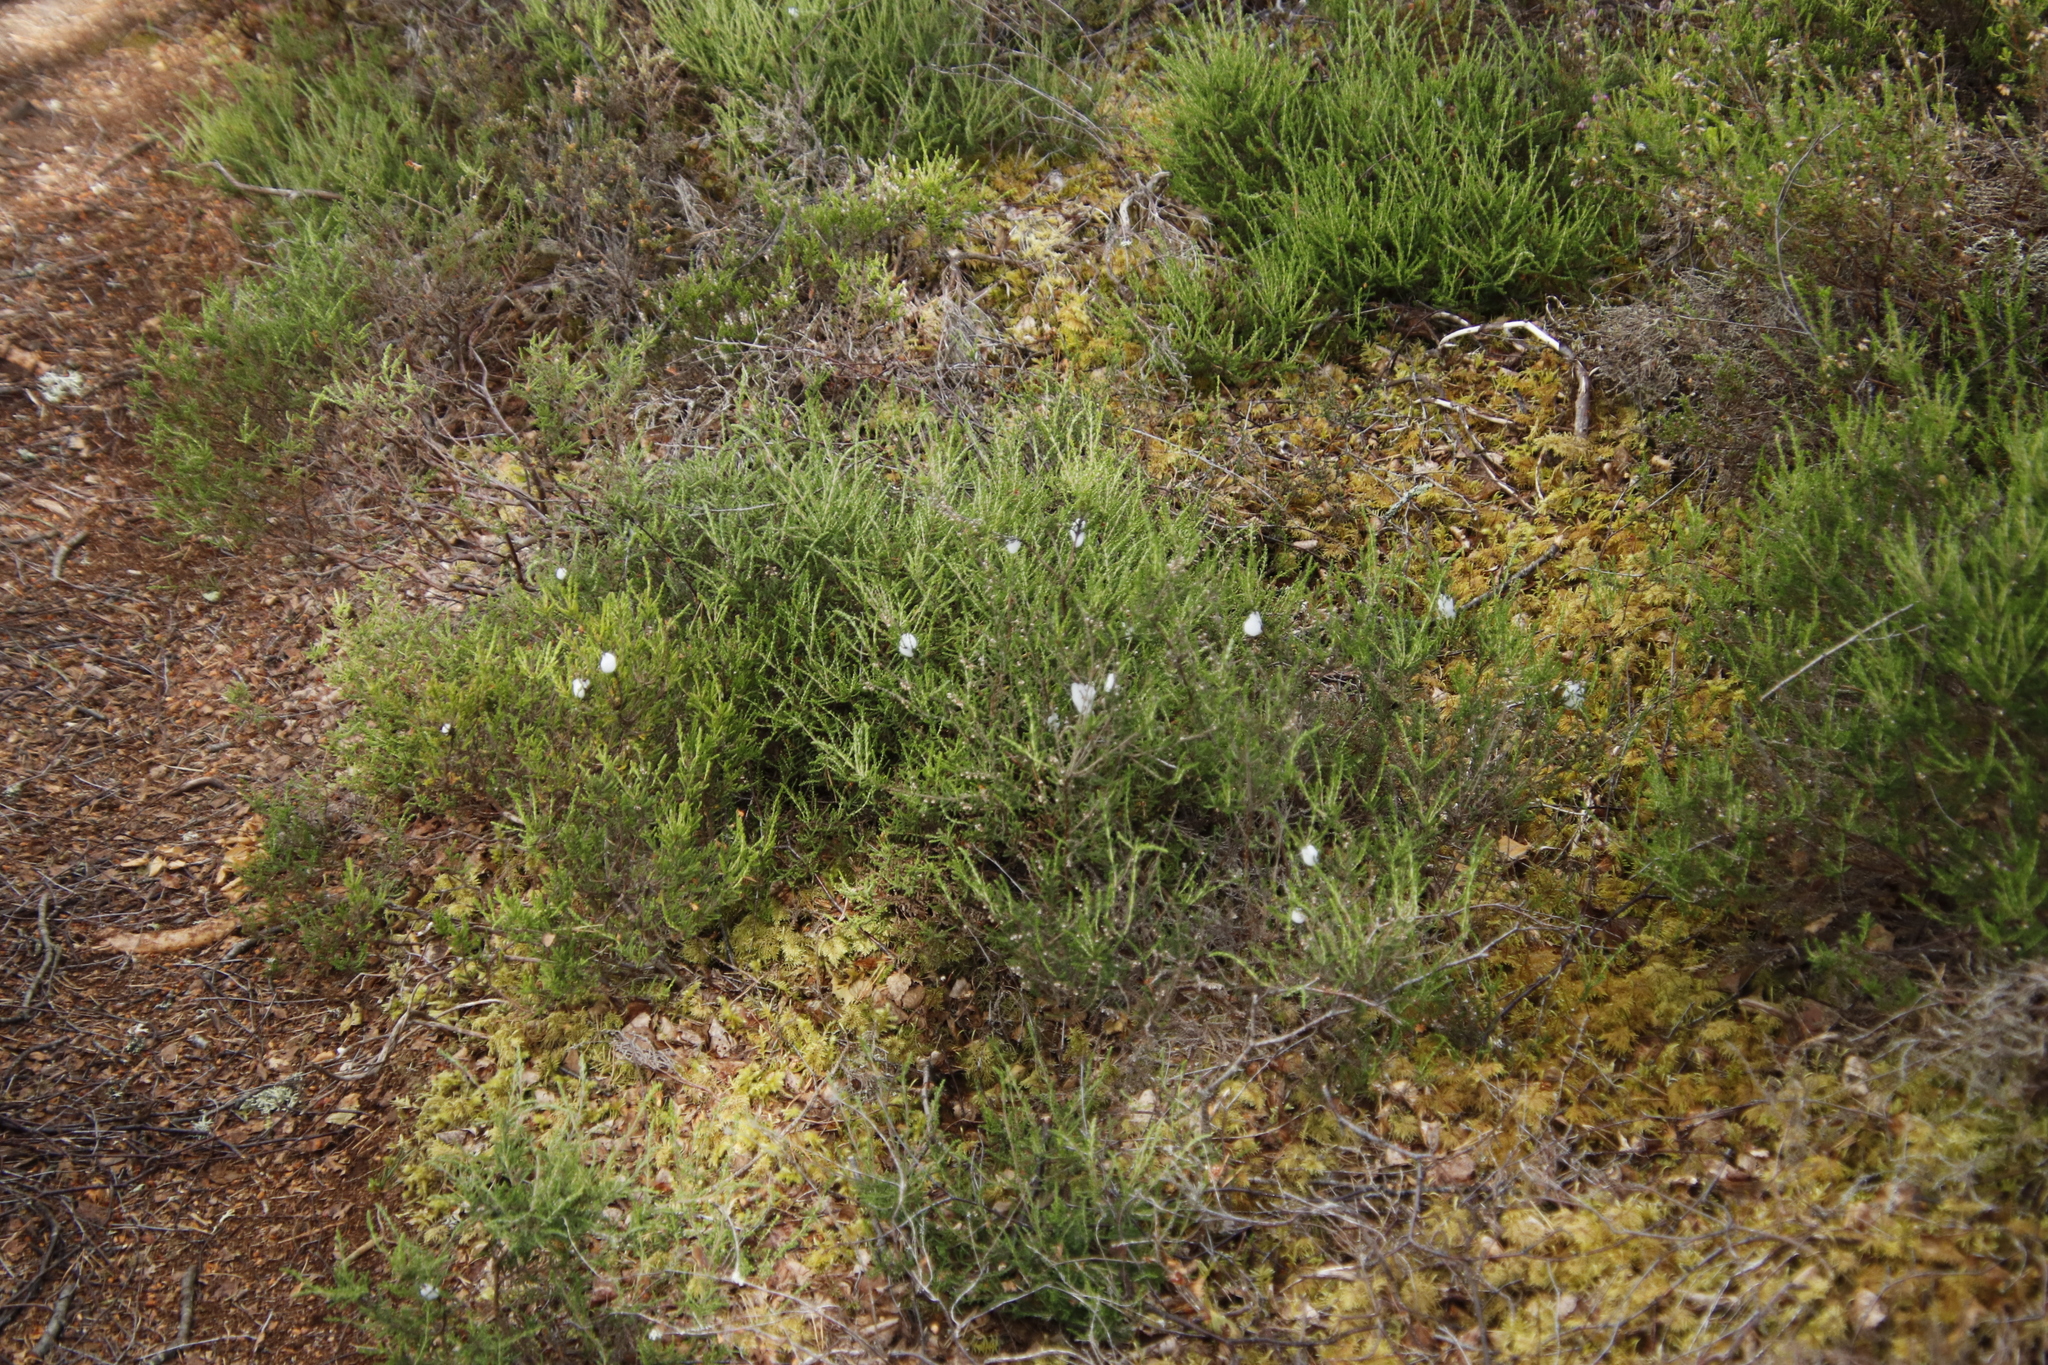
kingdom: Plantae
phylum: Tracheophyta
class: Magnoliopsida
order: Ericales
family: Ericaceae
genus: Calluna
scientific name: Calluna vulgaris
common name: Heather
